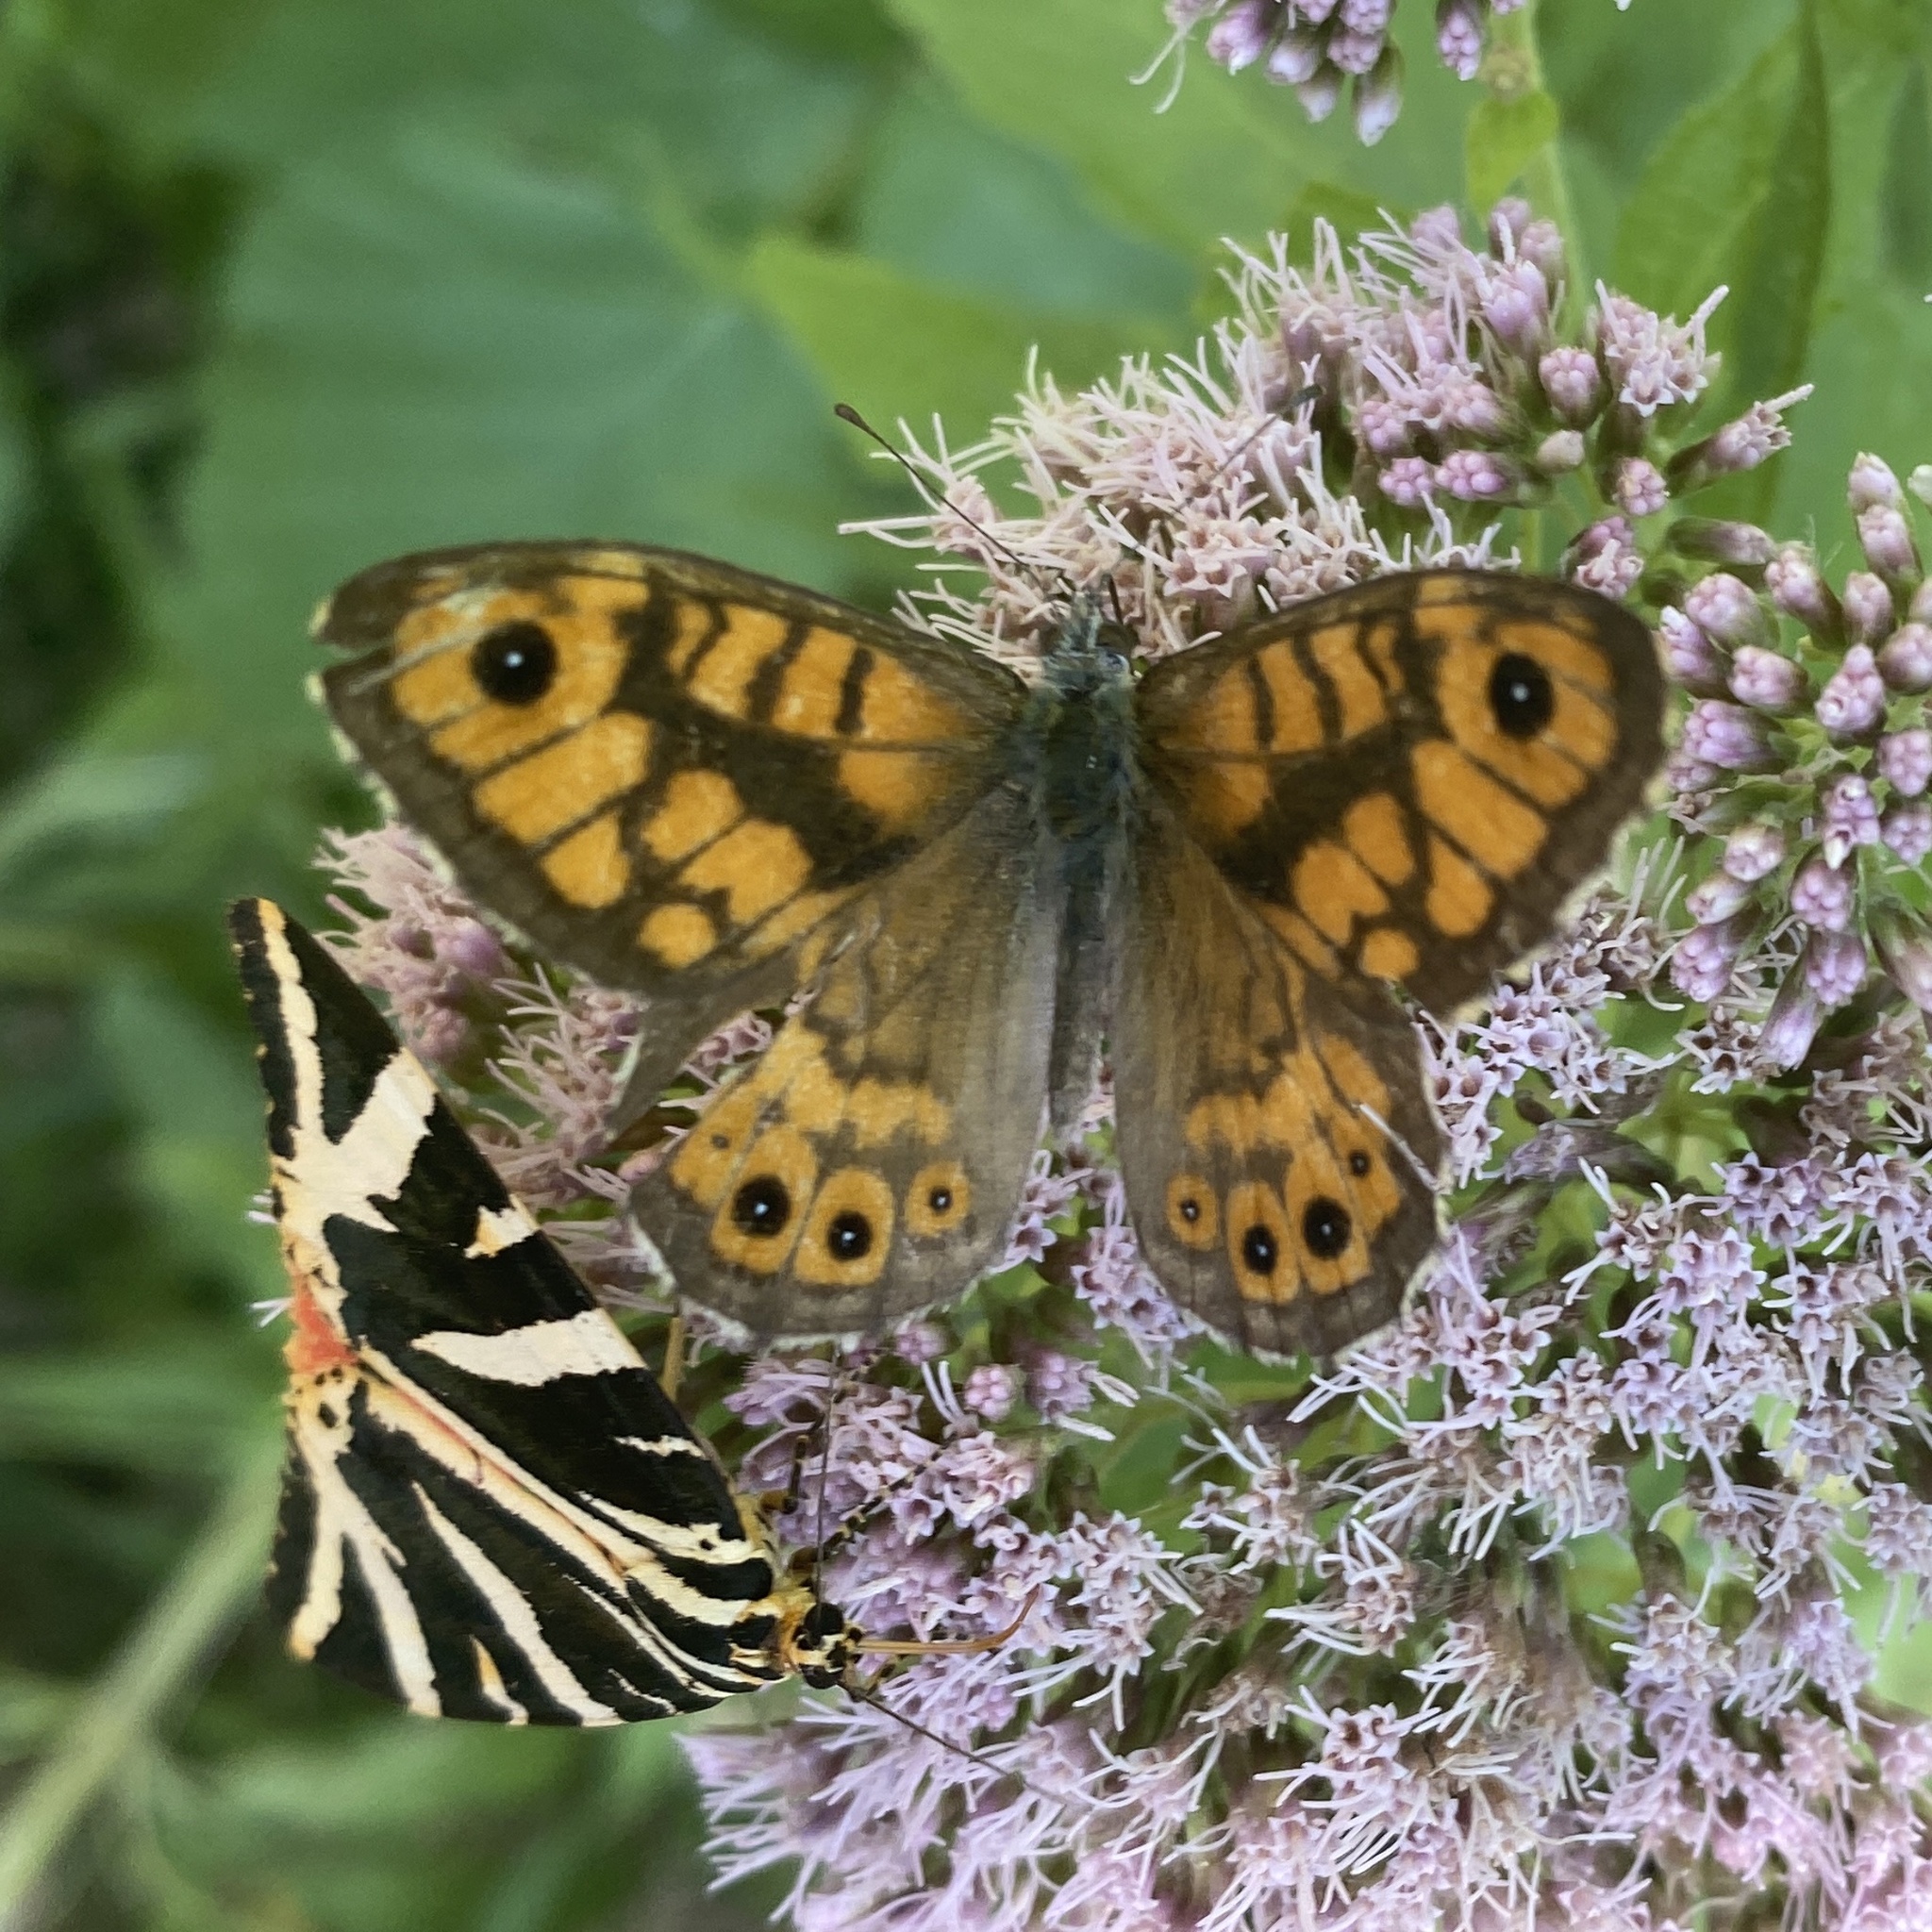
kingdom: Animalia
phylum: Arthropoda
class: Insecta
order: Lepidoptera
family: Nymphalidae
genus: Pararge
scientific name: Pararge Lasiommata megera
